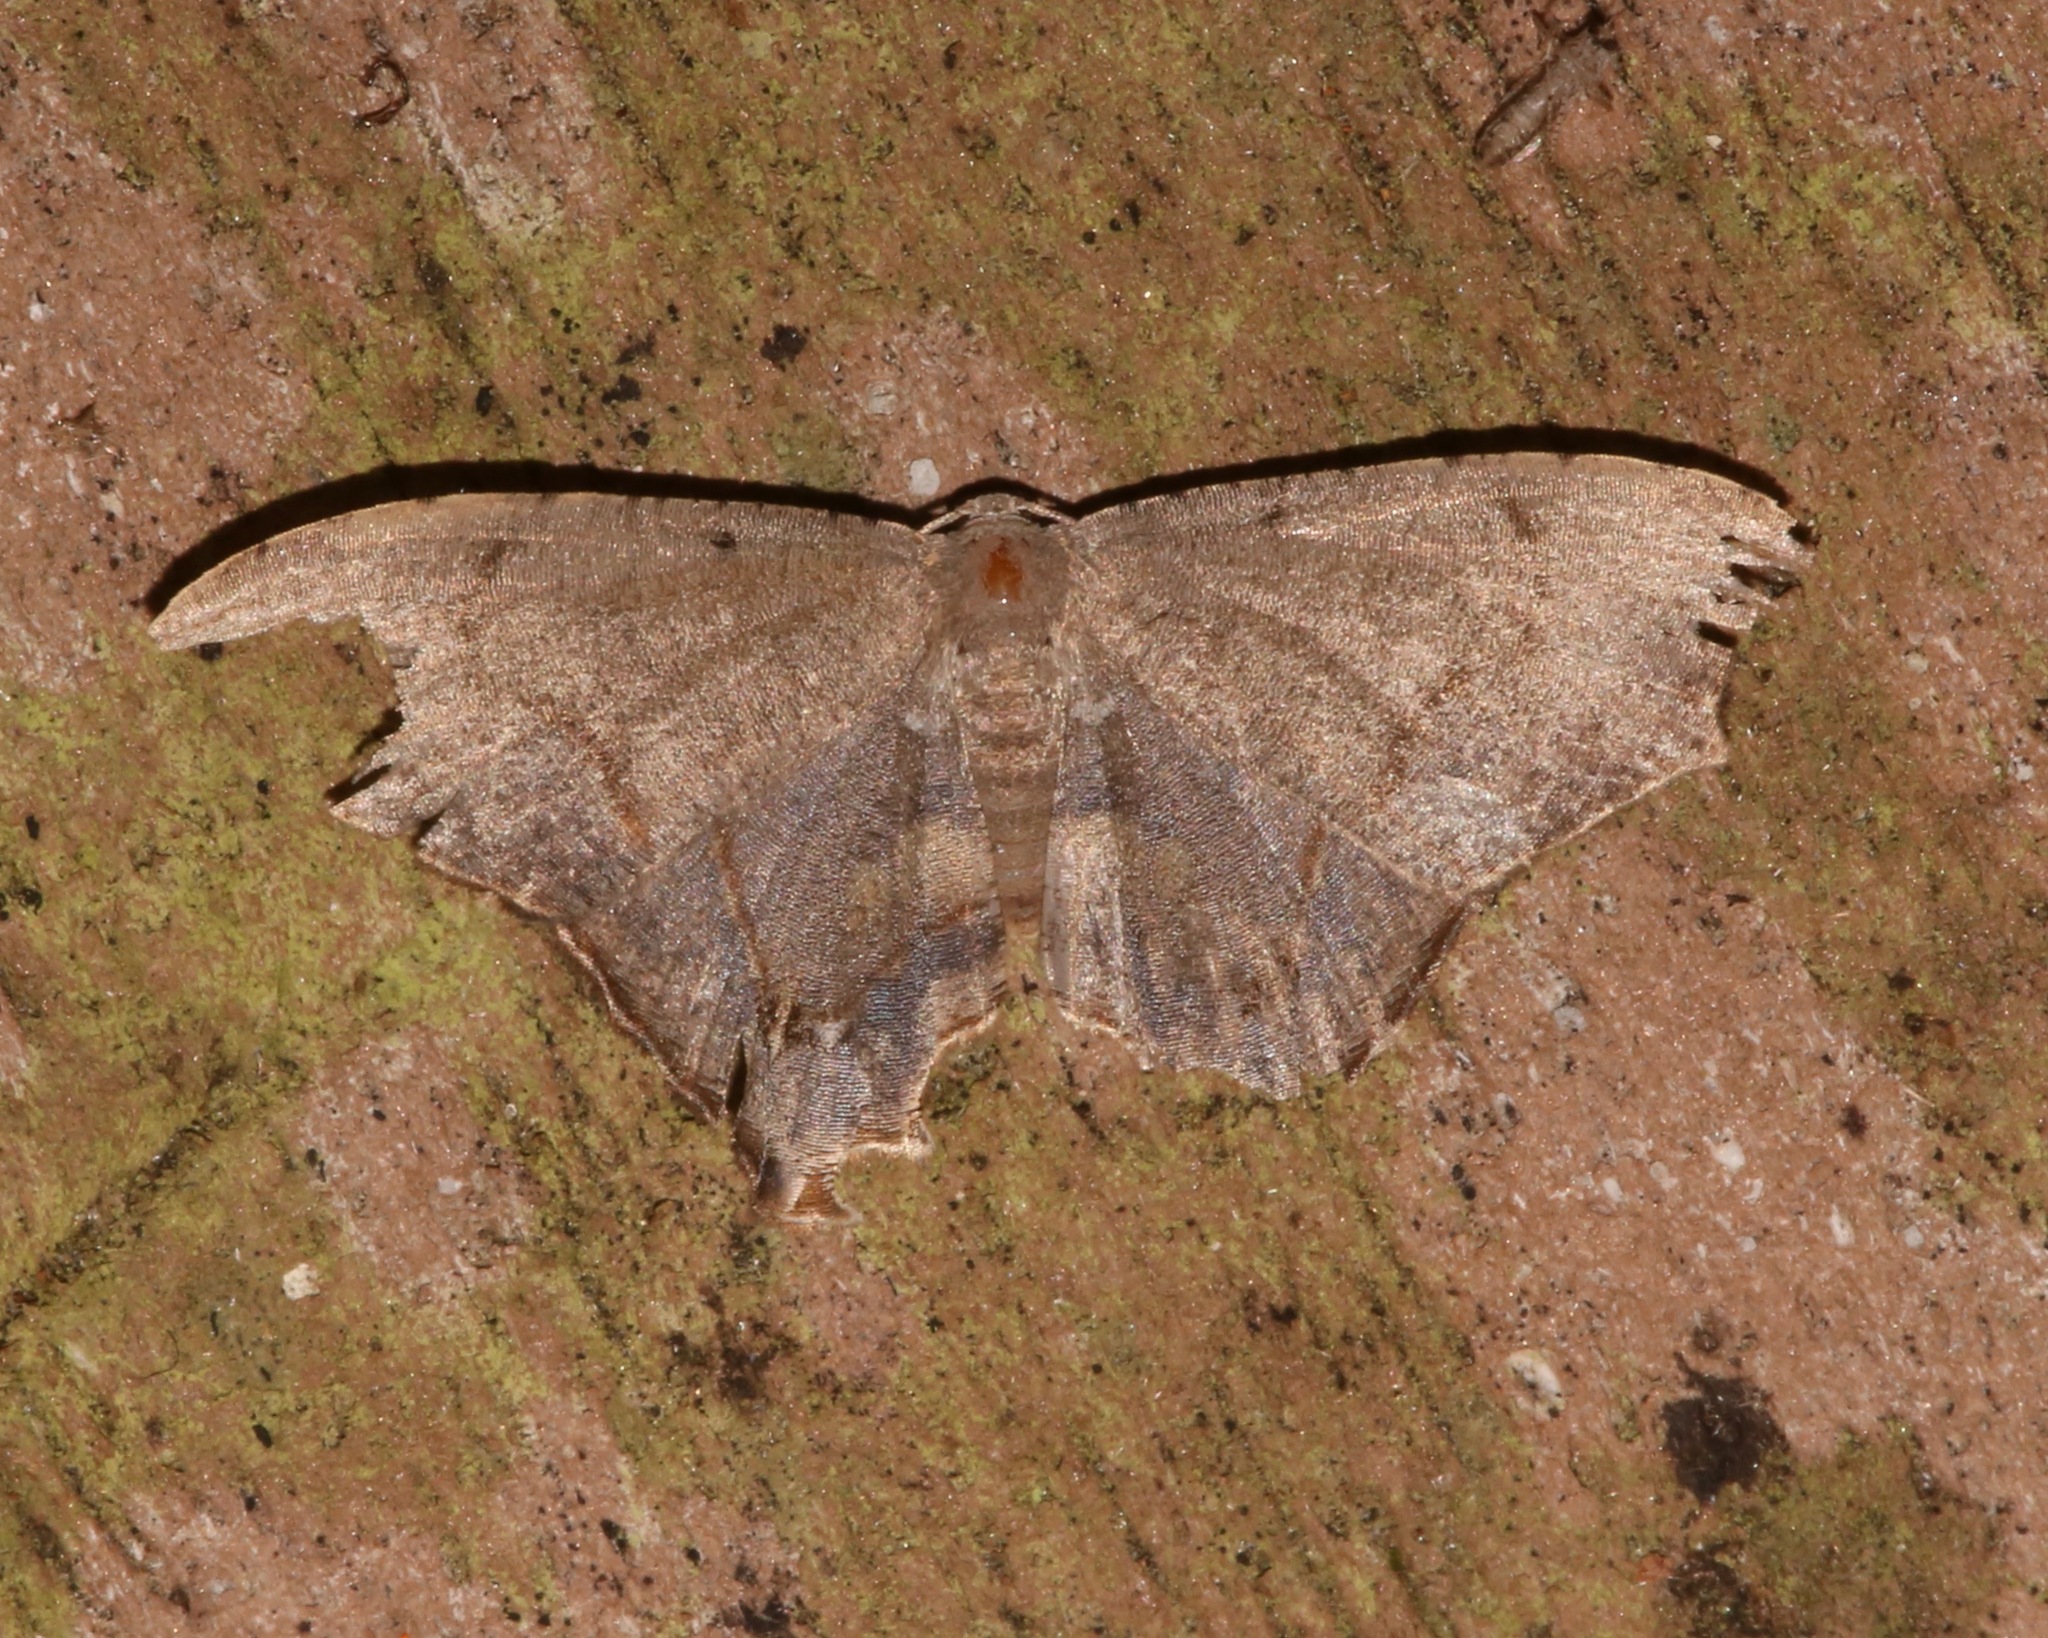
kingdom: Animalia
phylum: Arthropoda
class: Insecta
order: Lepidoptera
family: Uraniidae
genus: Trotorhombia
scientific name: Trotorhombia metachromata
